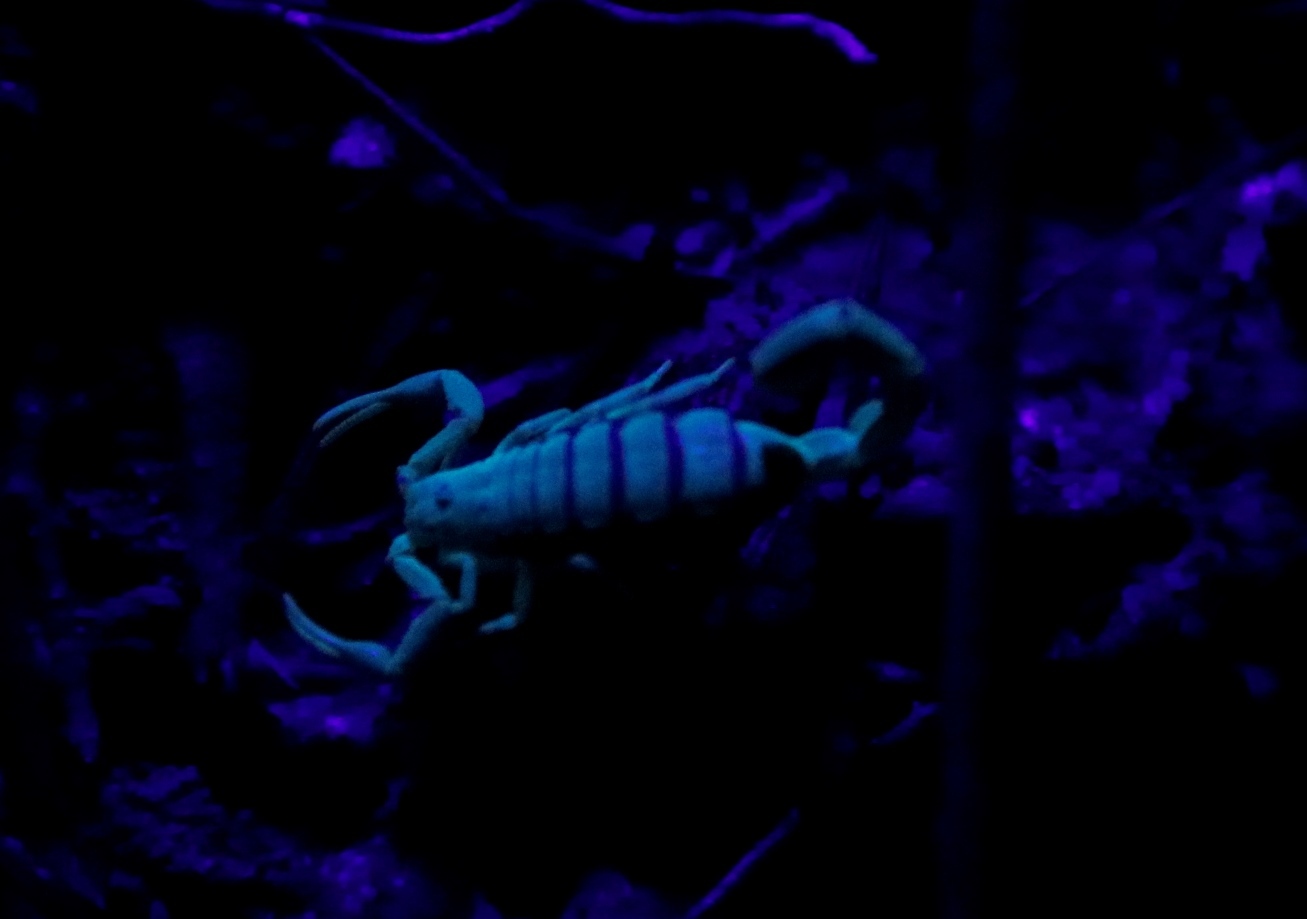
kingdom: Animalia
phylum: Arthropoda
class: Arachnida
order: Scorpiones
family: Buthidae
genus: Uroplectes
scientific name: Uroplectes lineatus
